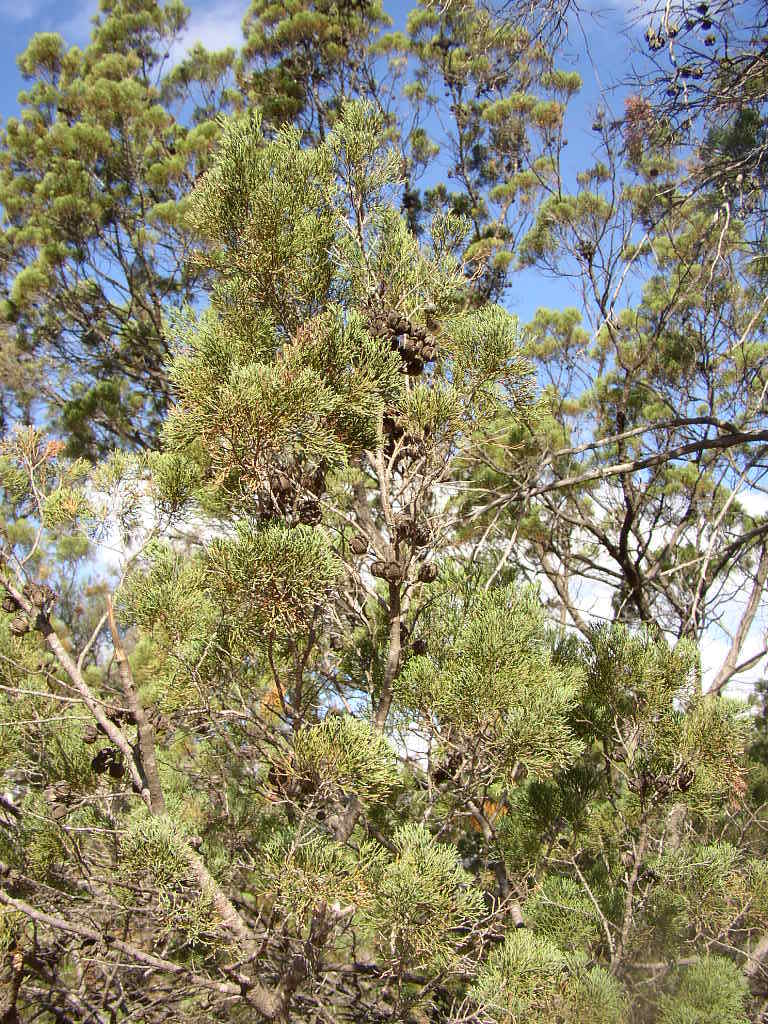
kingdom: Plantae
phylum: Tracheophyta
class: Pinopsida
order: Pinales
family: Cupressaceae
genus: Callitris
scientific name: Callitris canescens
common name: Morrison's cypress-pine
